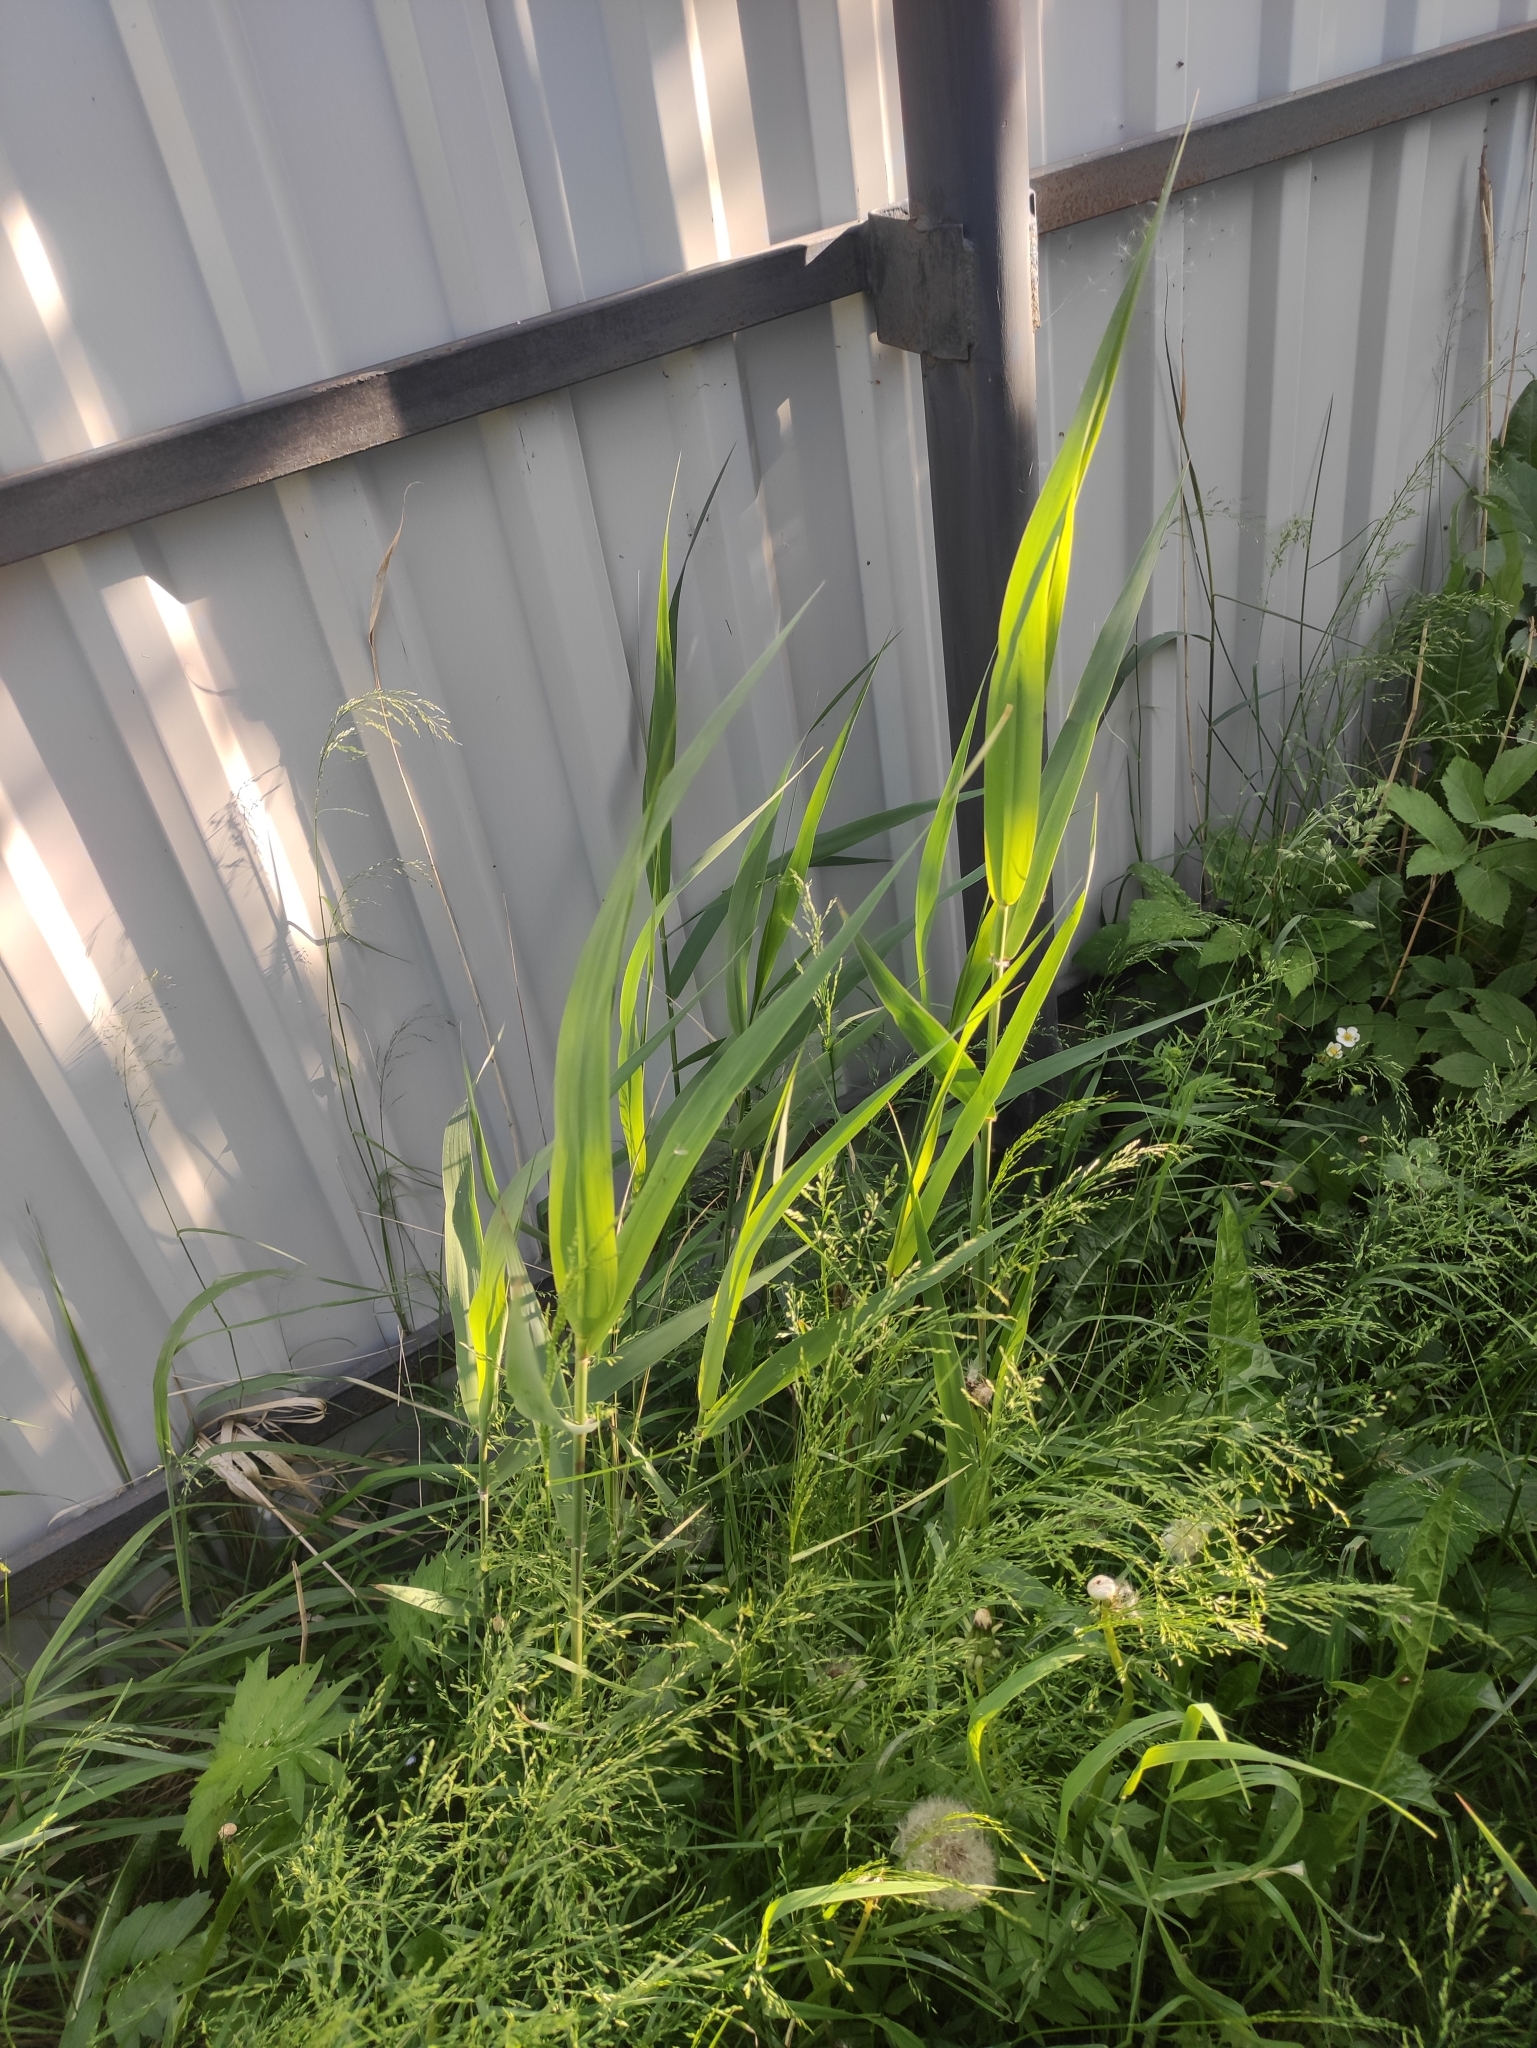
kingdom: Plantae
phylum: Tracheophyta
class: Liliopsida
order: Poales
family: Poaceae
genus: Phragmites
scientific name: Phragmites australis
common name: Common reed
